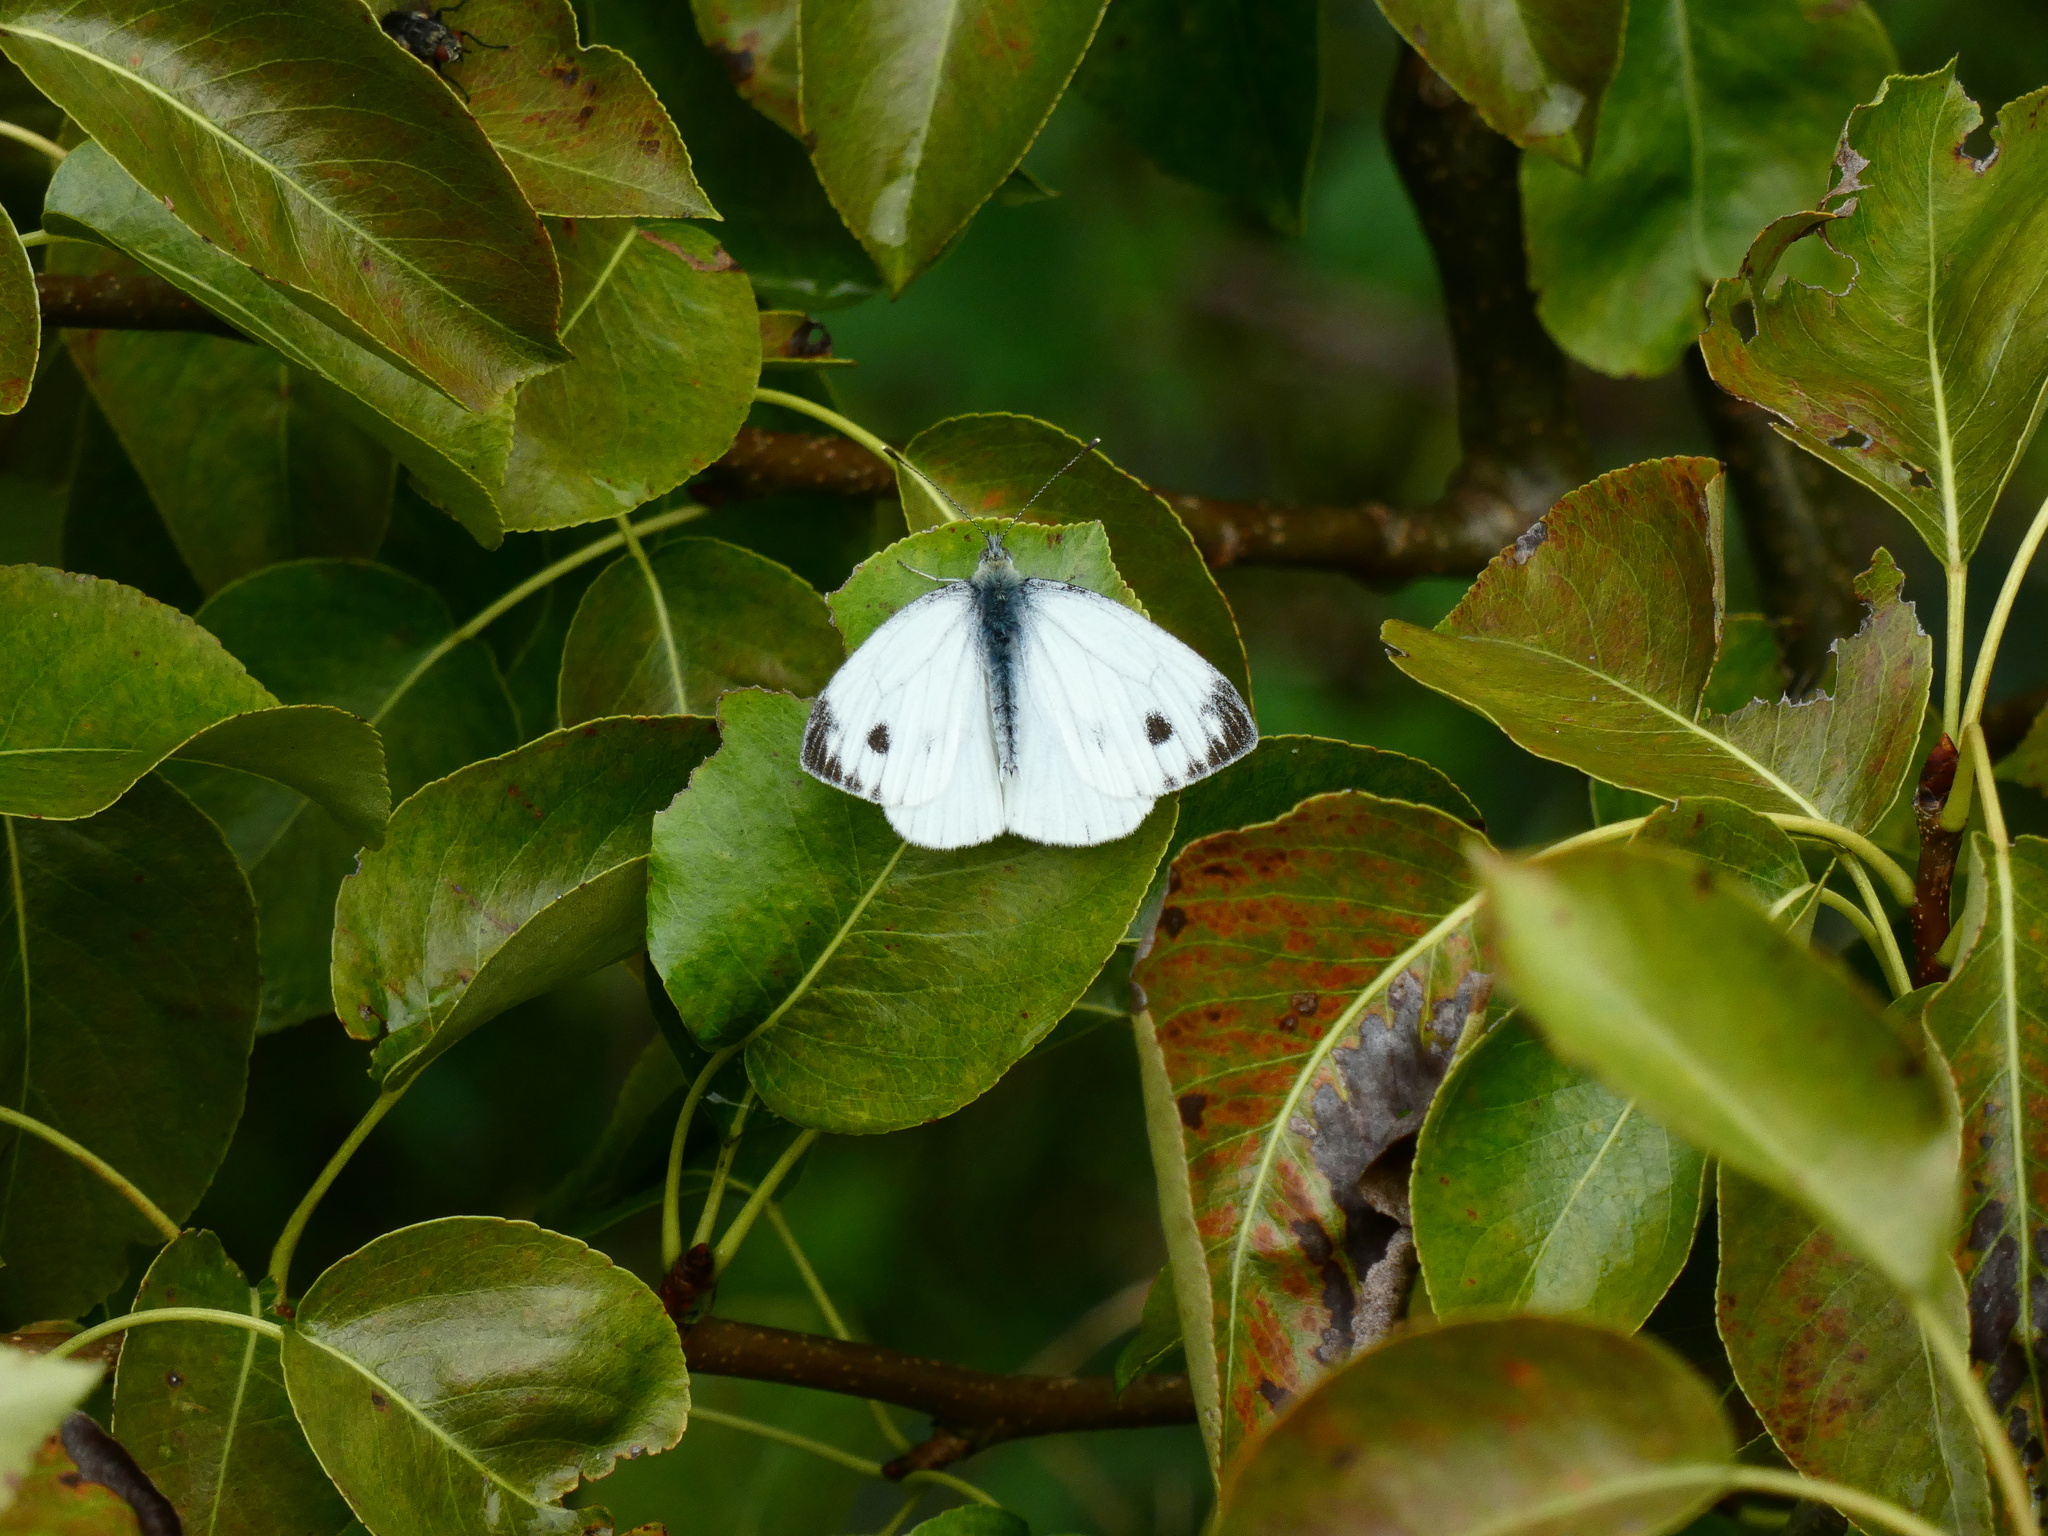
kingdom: Animalia
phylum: Arthropoda
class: Insecta
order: Lepidoptera
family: Pieridae
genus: Pieris
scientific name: Pieris napi
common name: Green-veined white
